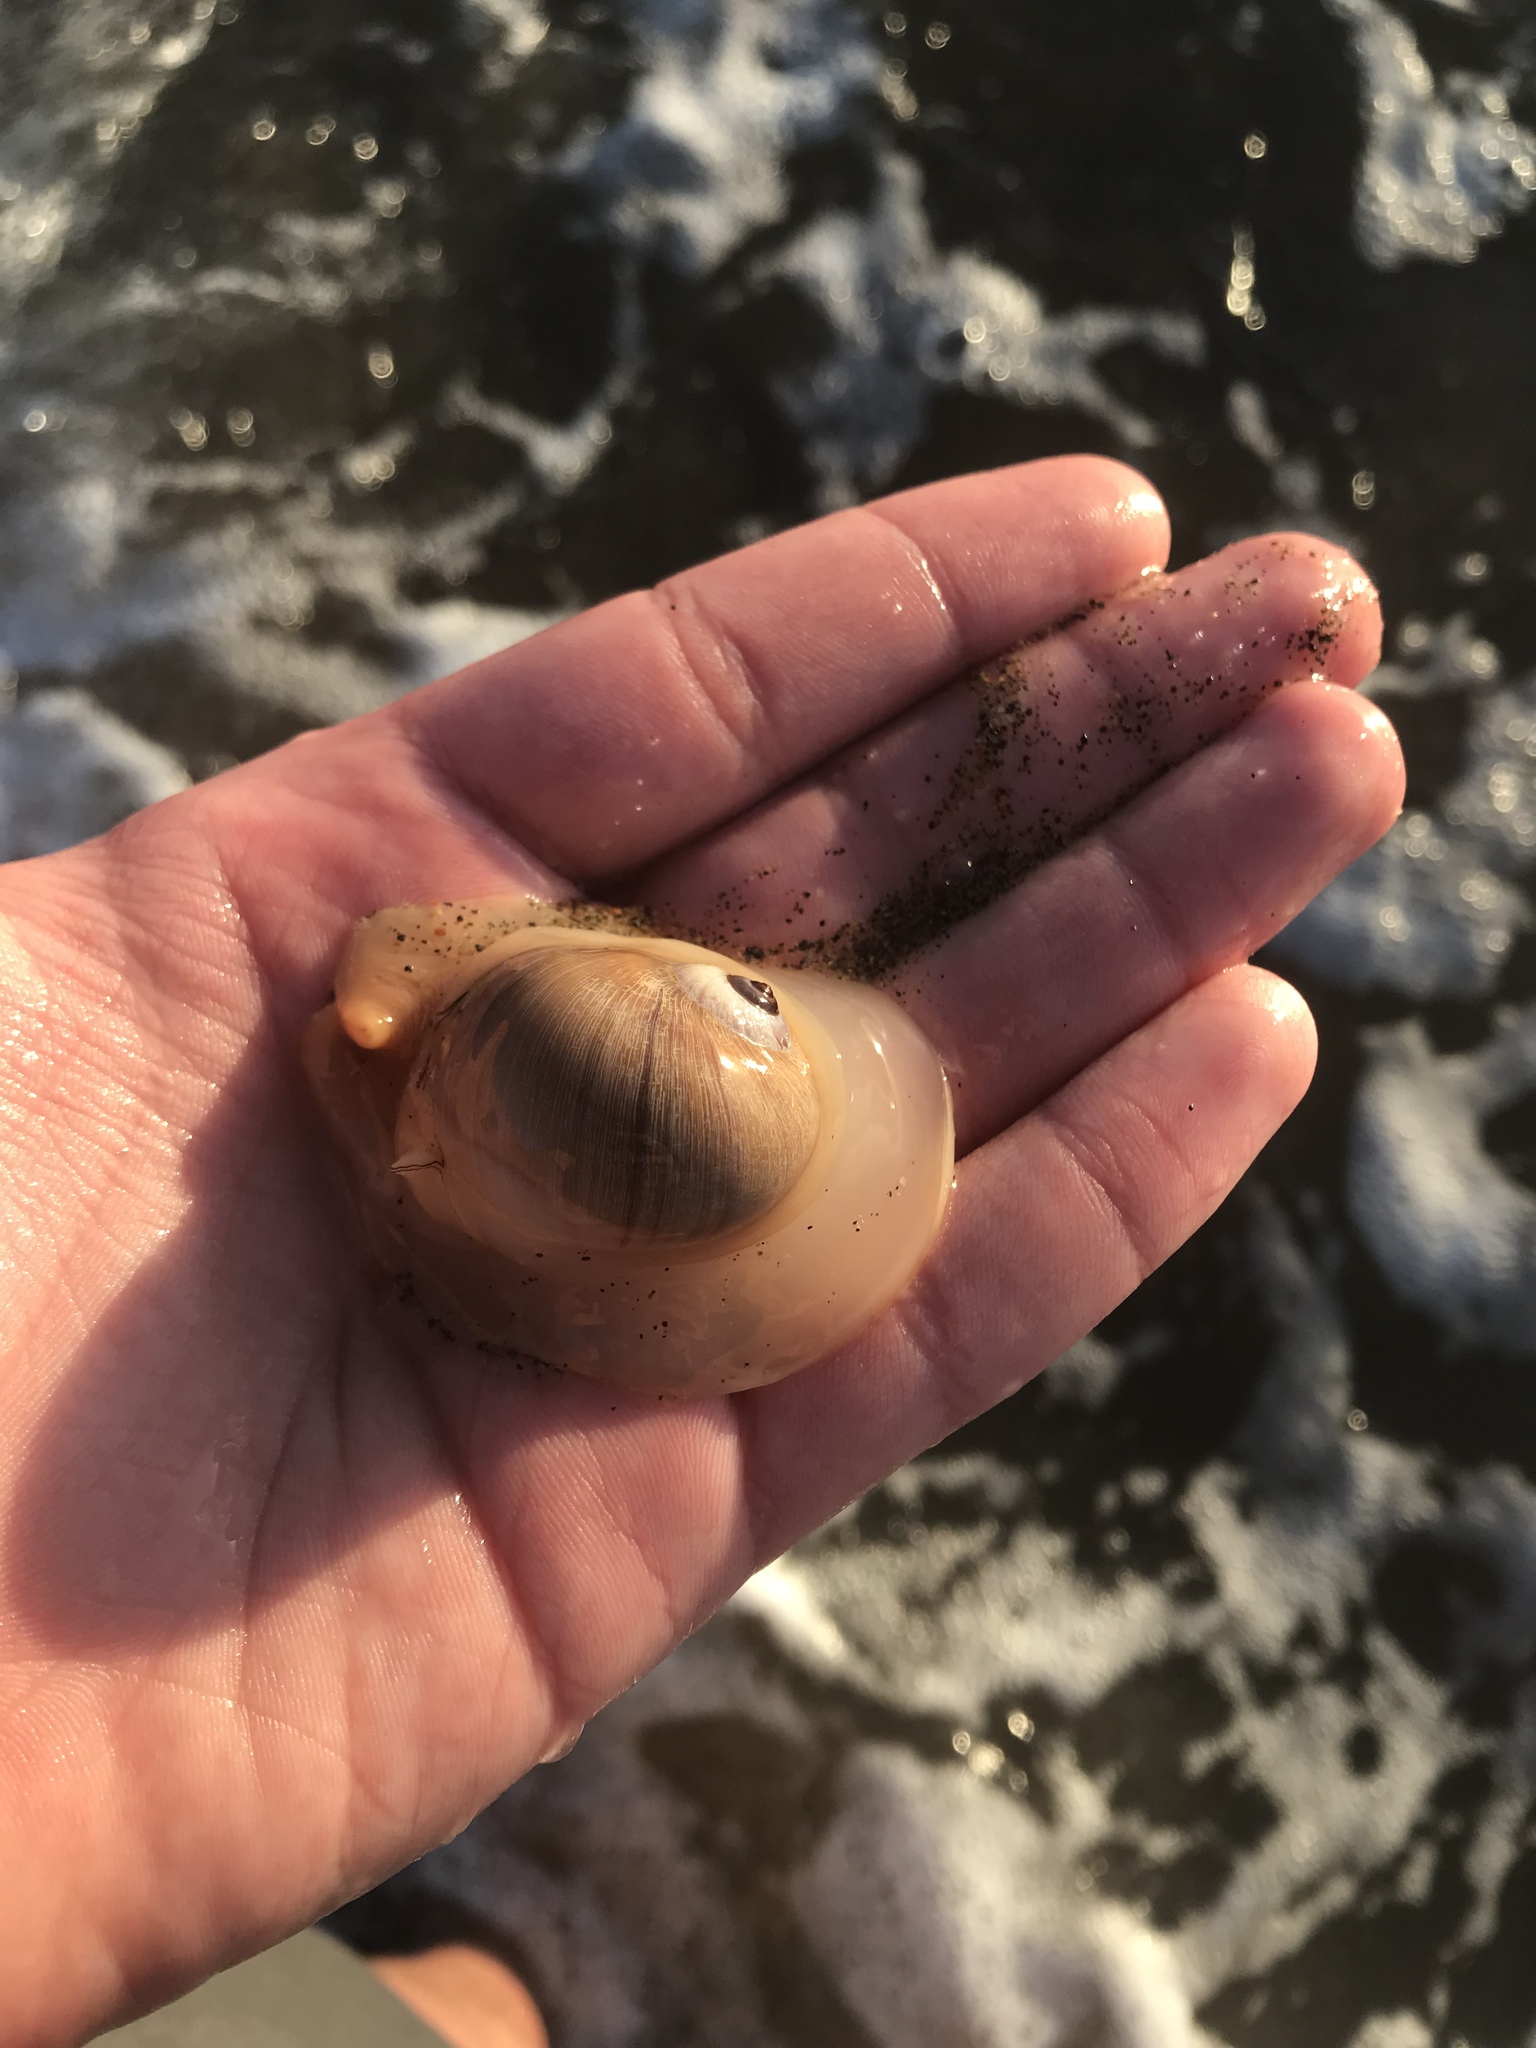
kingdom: Animalia
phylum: Mollusca
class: Gastropoda
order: Littorinimorpha
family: Naticidae
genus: Neverita
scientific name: Neverita lewisii
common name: Lewis' moonsnail
